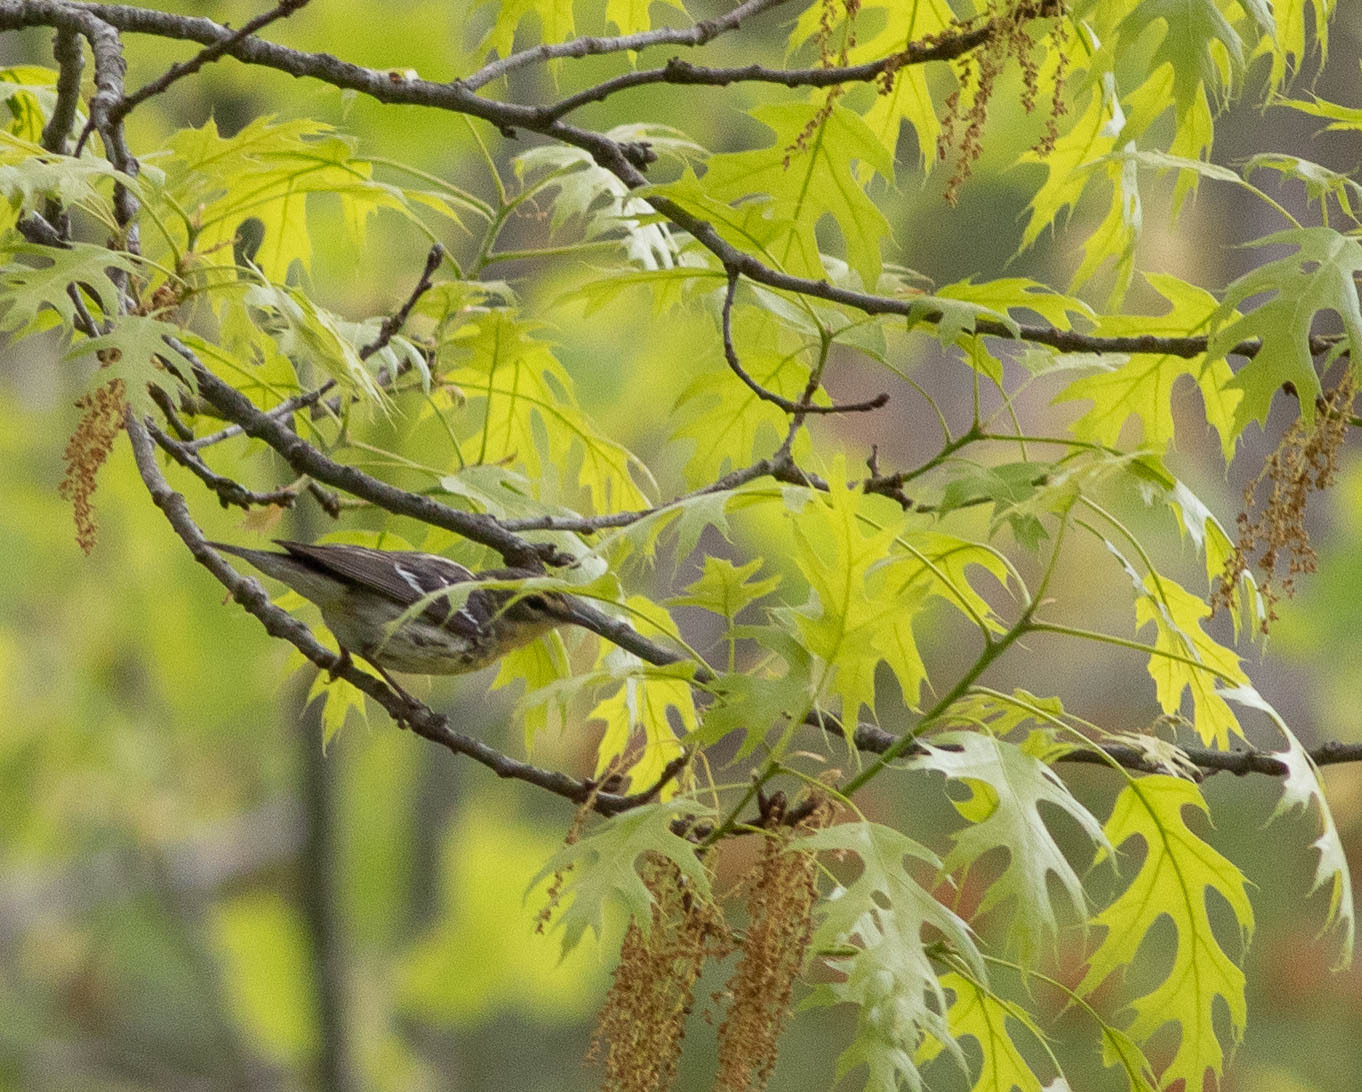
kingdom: Animalia
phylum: Chordata
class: Aves
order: Passeriformes
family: Parulidae
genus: Setophaga
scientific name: Setophaga fusca
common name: Blackburnian warbler
